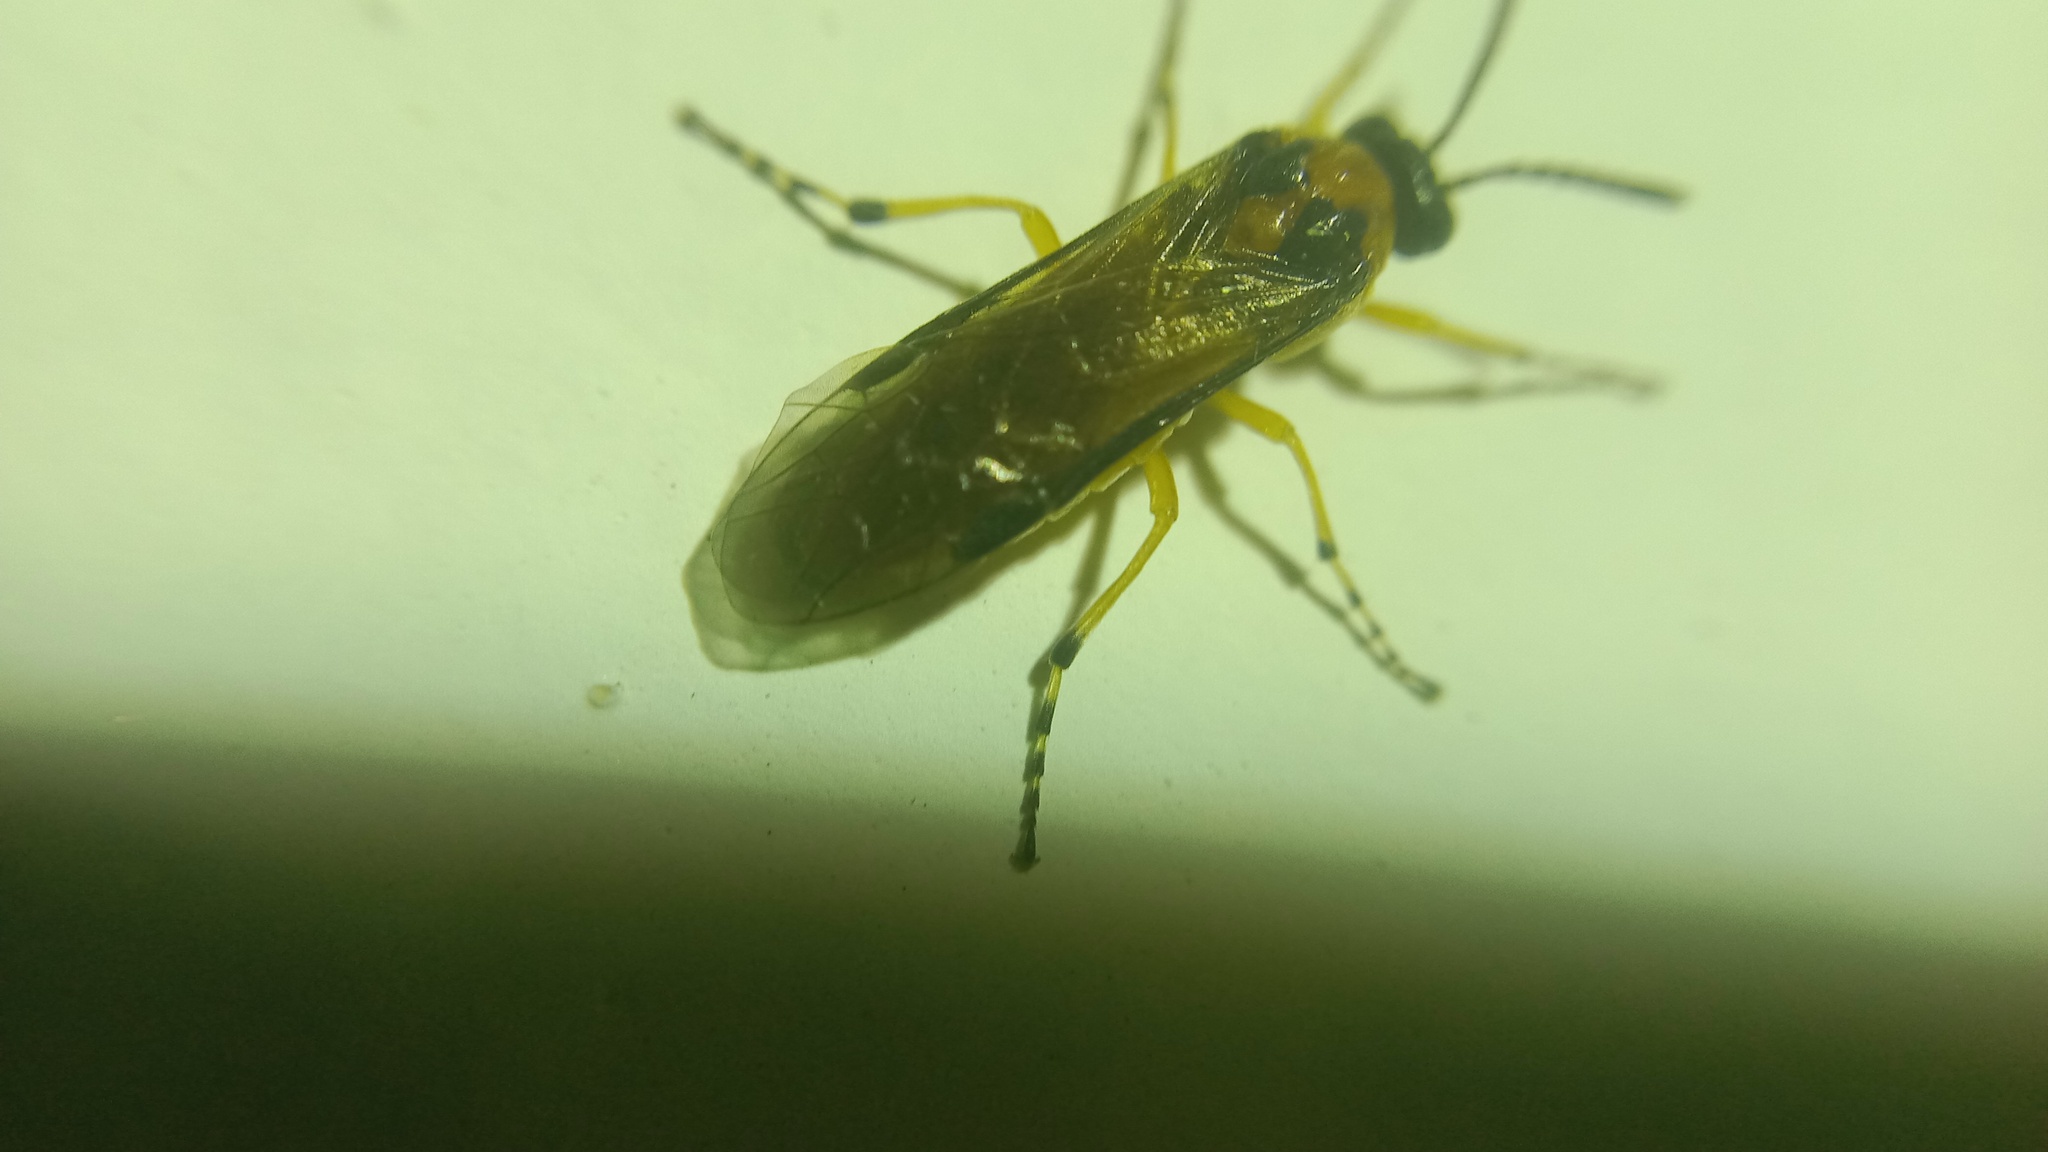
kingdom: Animalia
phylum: Arthropoda
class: Insecta
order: Hymenoptera
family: Tenthredinidae
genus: Athalia
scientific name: Athalia rosae
